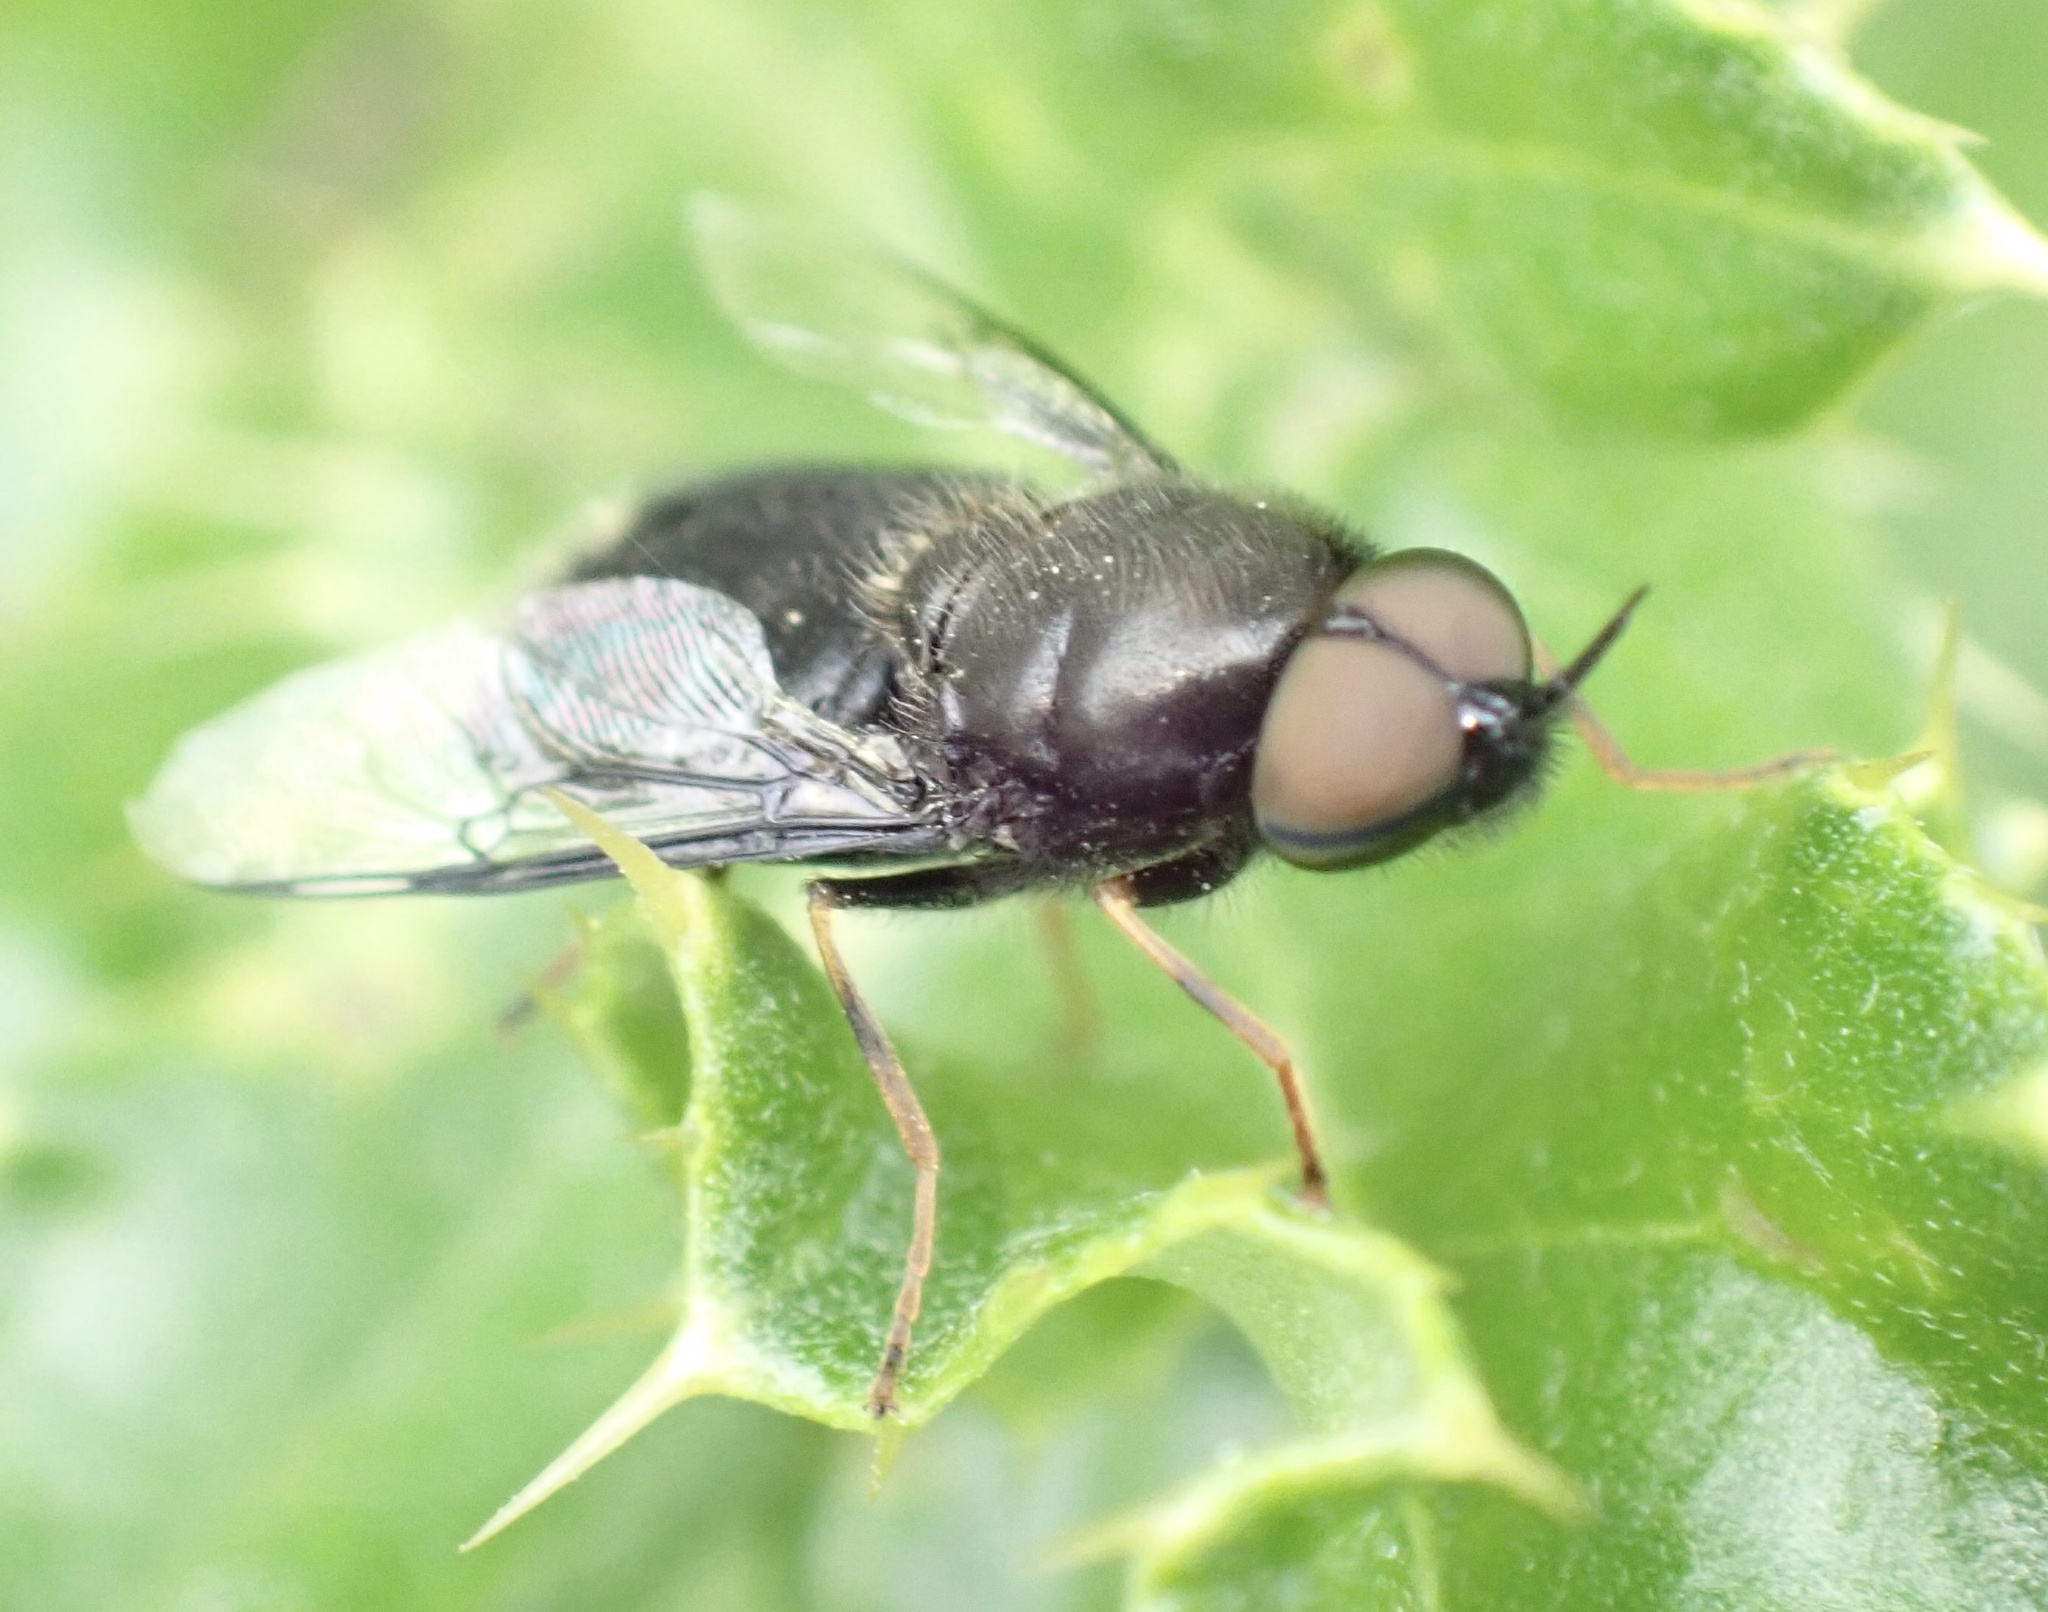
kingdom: Animalia
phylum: Arthropoda
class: Insecta
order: Diptera
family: Stratiomyidae
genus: Odontomyia
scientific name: Odontomyia tigrina
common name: Black colonel
